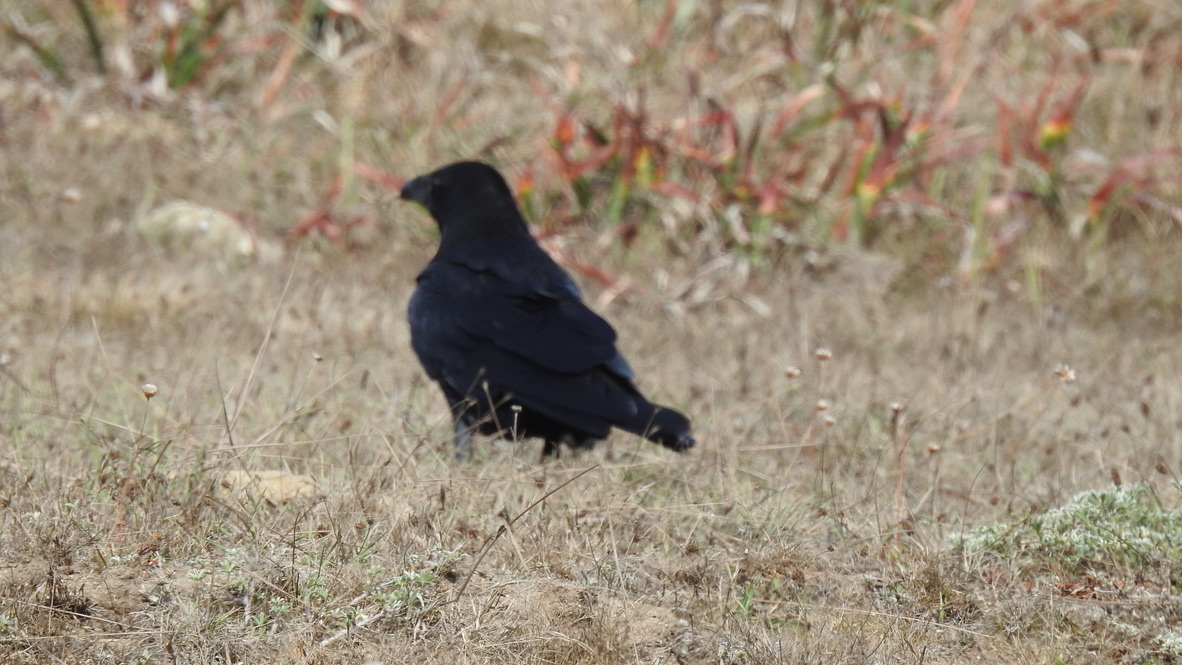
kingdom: Animalia
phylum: Chordata
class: Aves
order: Passeriformes
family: Corvidae
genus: Corvus
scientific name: Corvus corax
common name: Common raven
